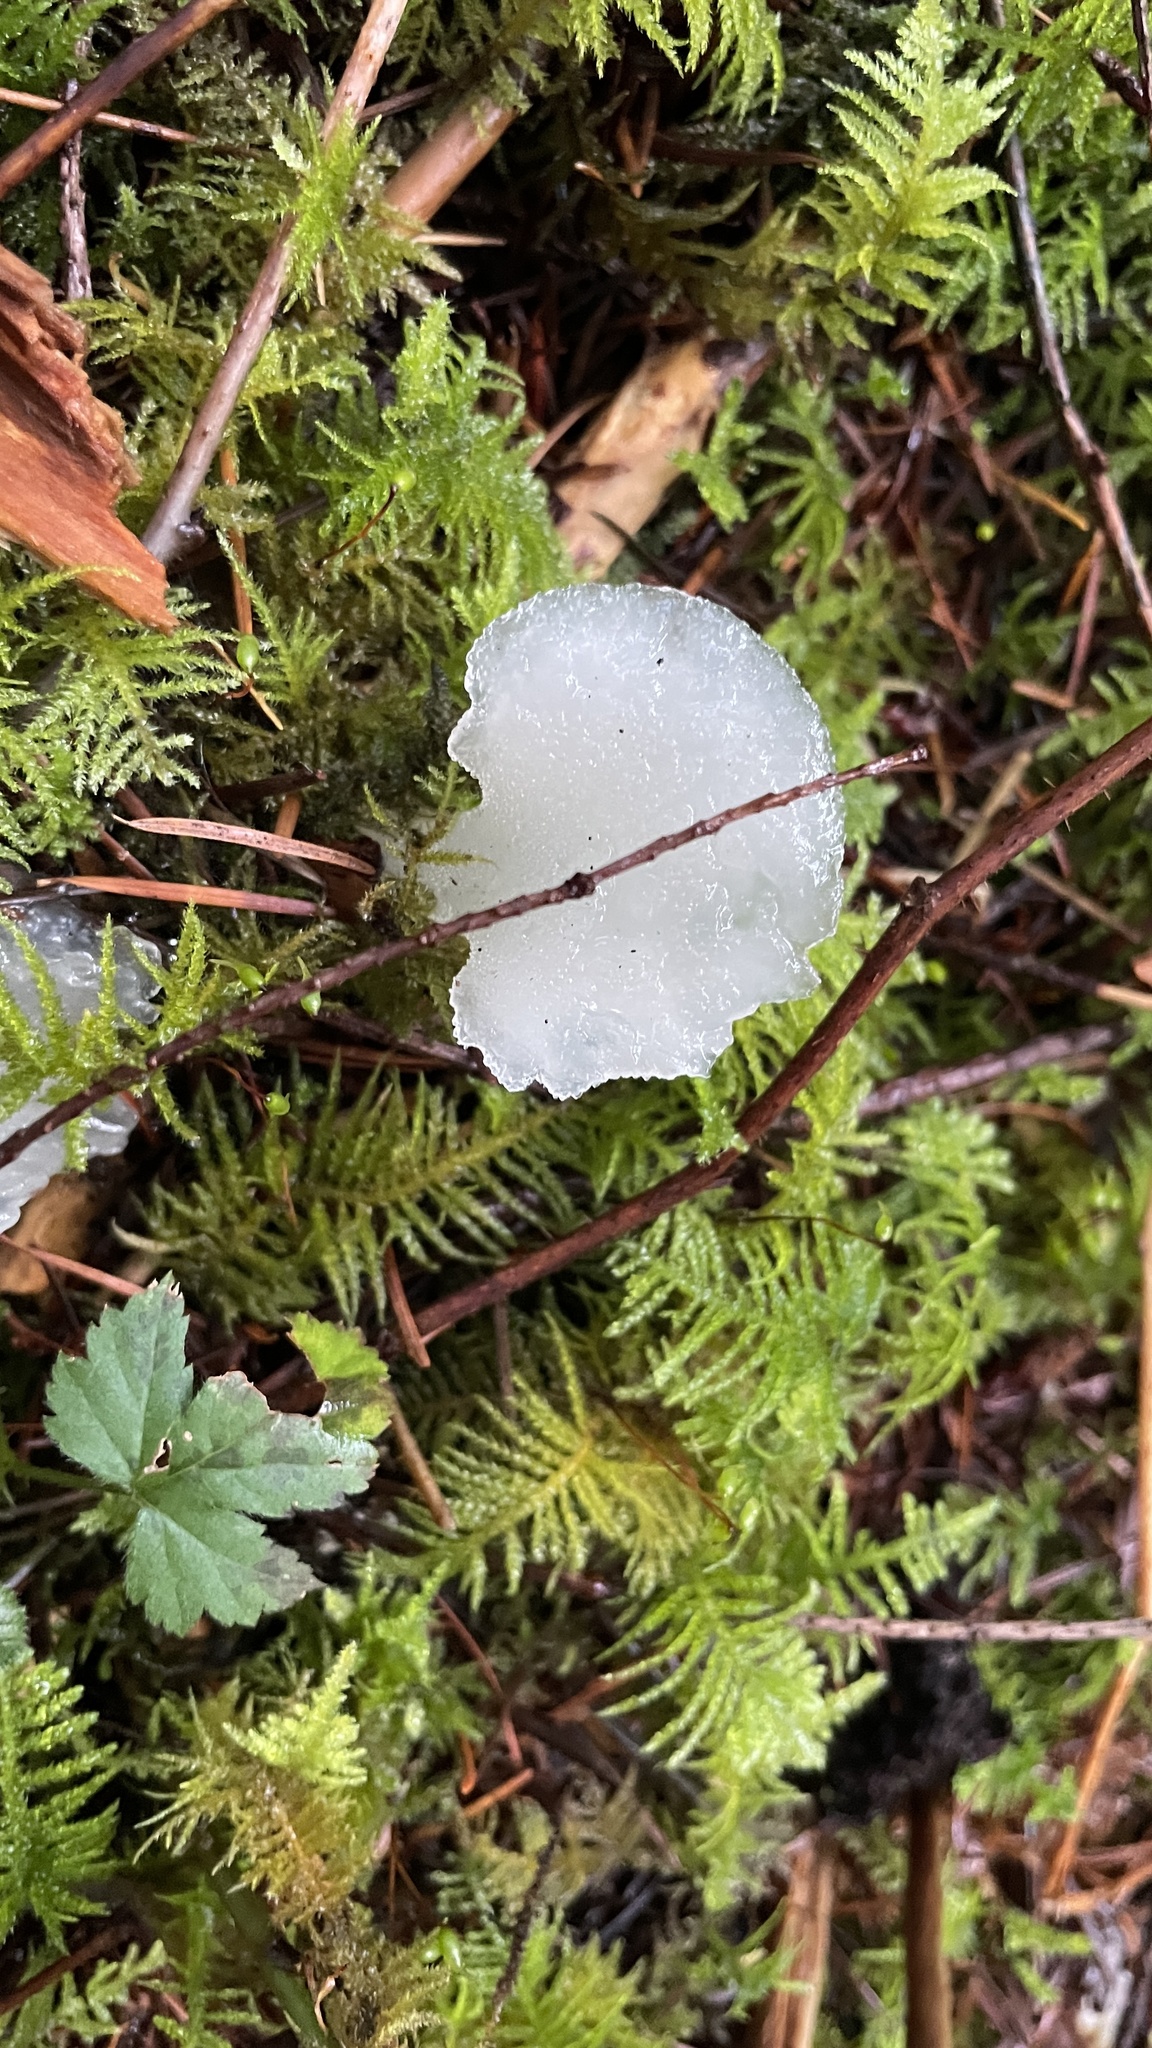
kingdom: Fungi
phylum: Basidiomycota
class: Agaricomycetes
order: Auriculariales
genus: Pseudohydnum
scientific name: Pseudohydnum gelatinosum
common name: Jelly tongue
